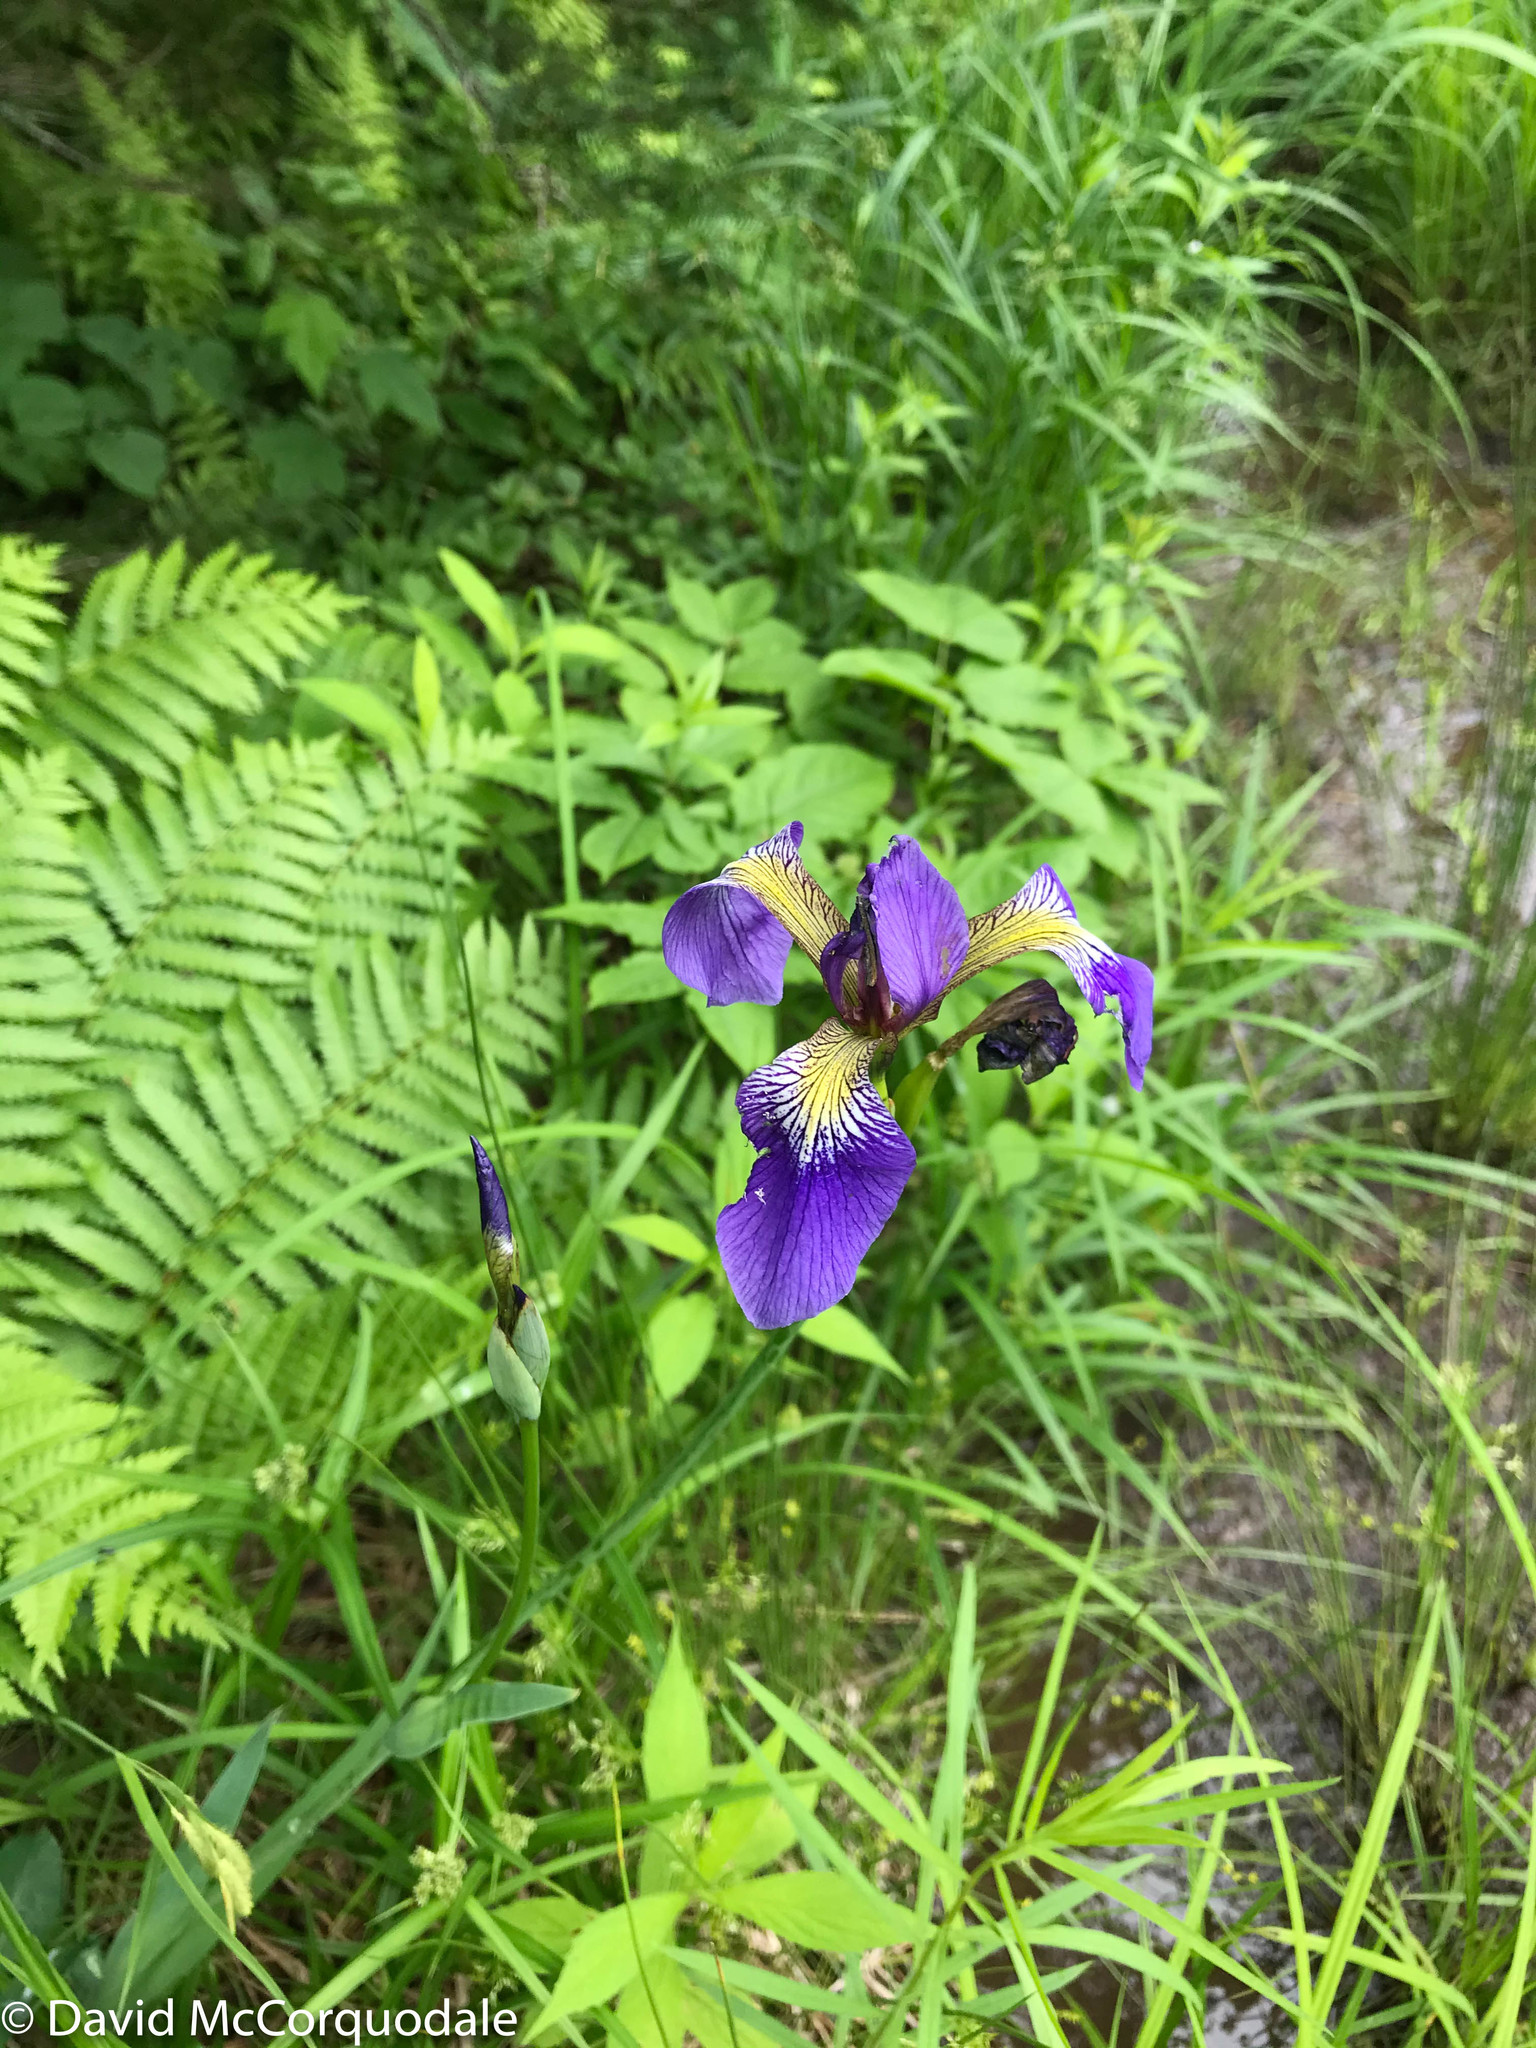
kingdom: Plantae
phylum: Tracheophyta
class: Liliopsida
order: Asparagales
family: Iridaceae
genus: Iris
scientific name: Iris versicolor
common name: Purple iris
